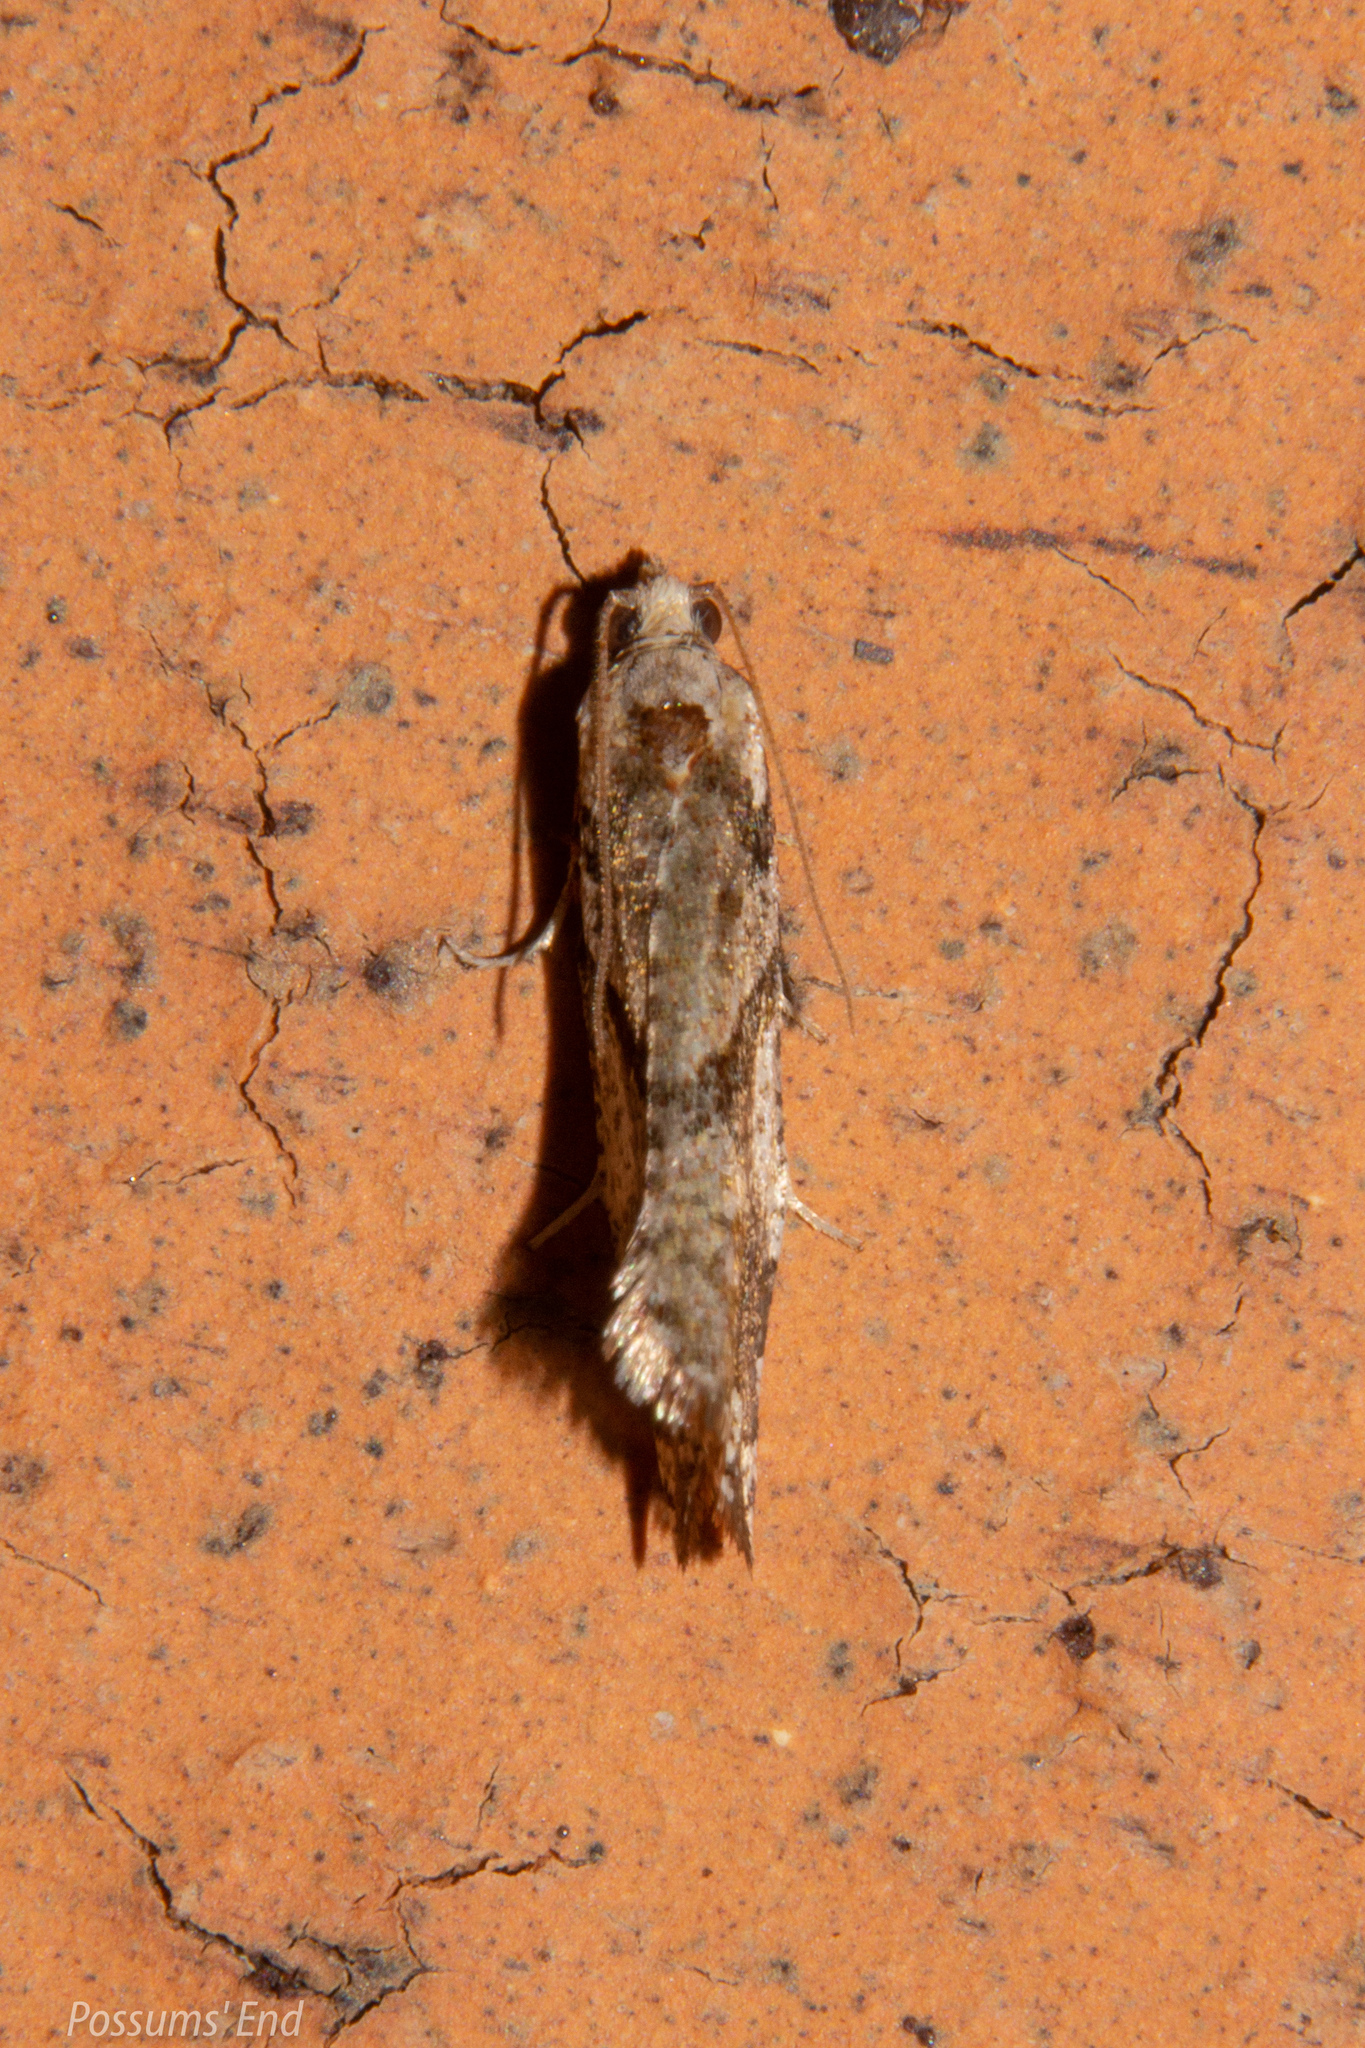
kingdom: Animalia
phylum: Arthropoda
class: Insecta
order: Lepidoptera
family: Tortricidae
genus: Pyrgotis
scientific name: Pyrgotis plagiatana
